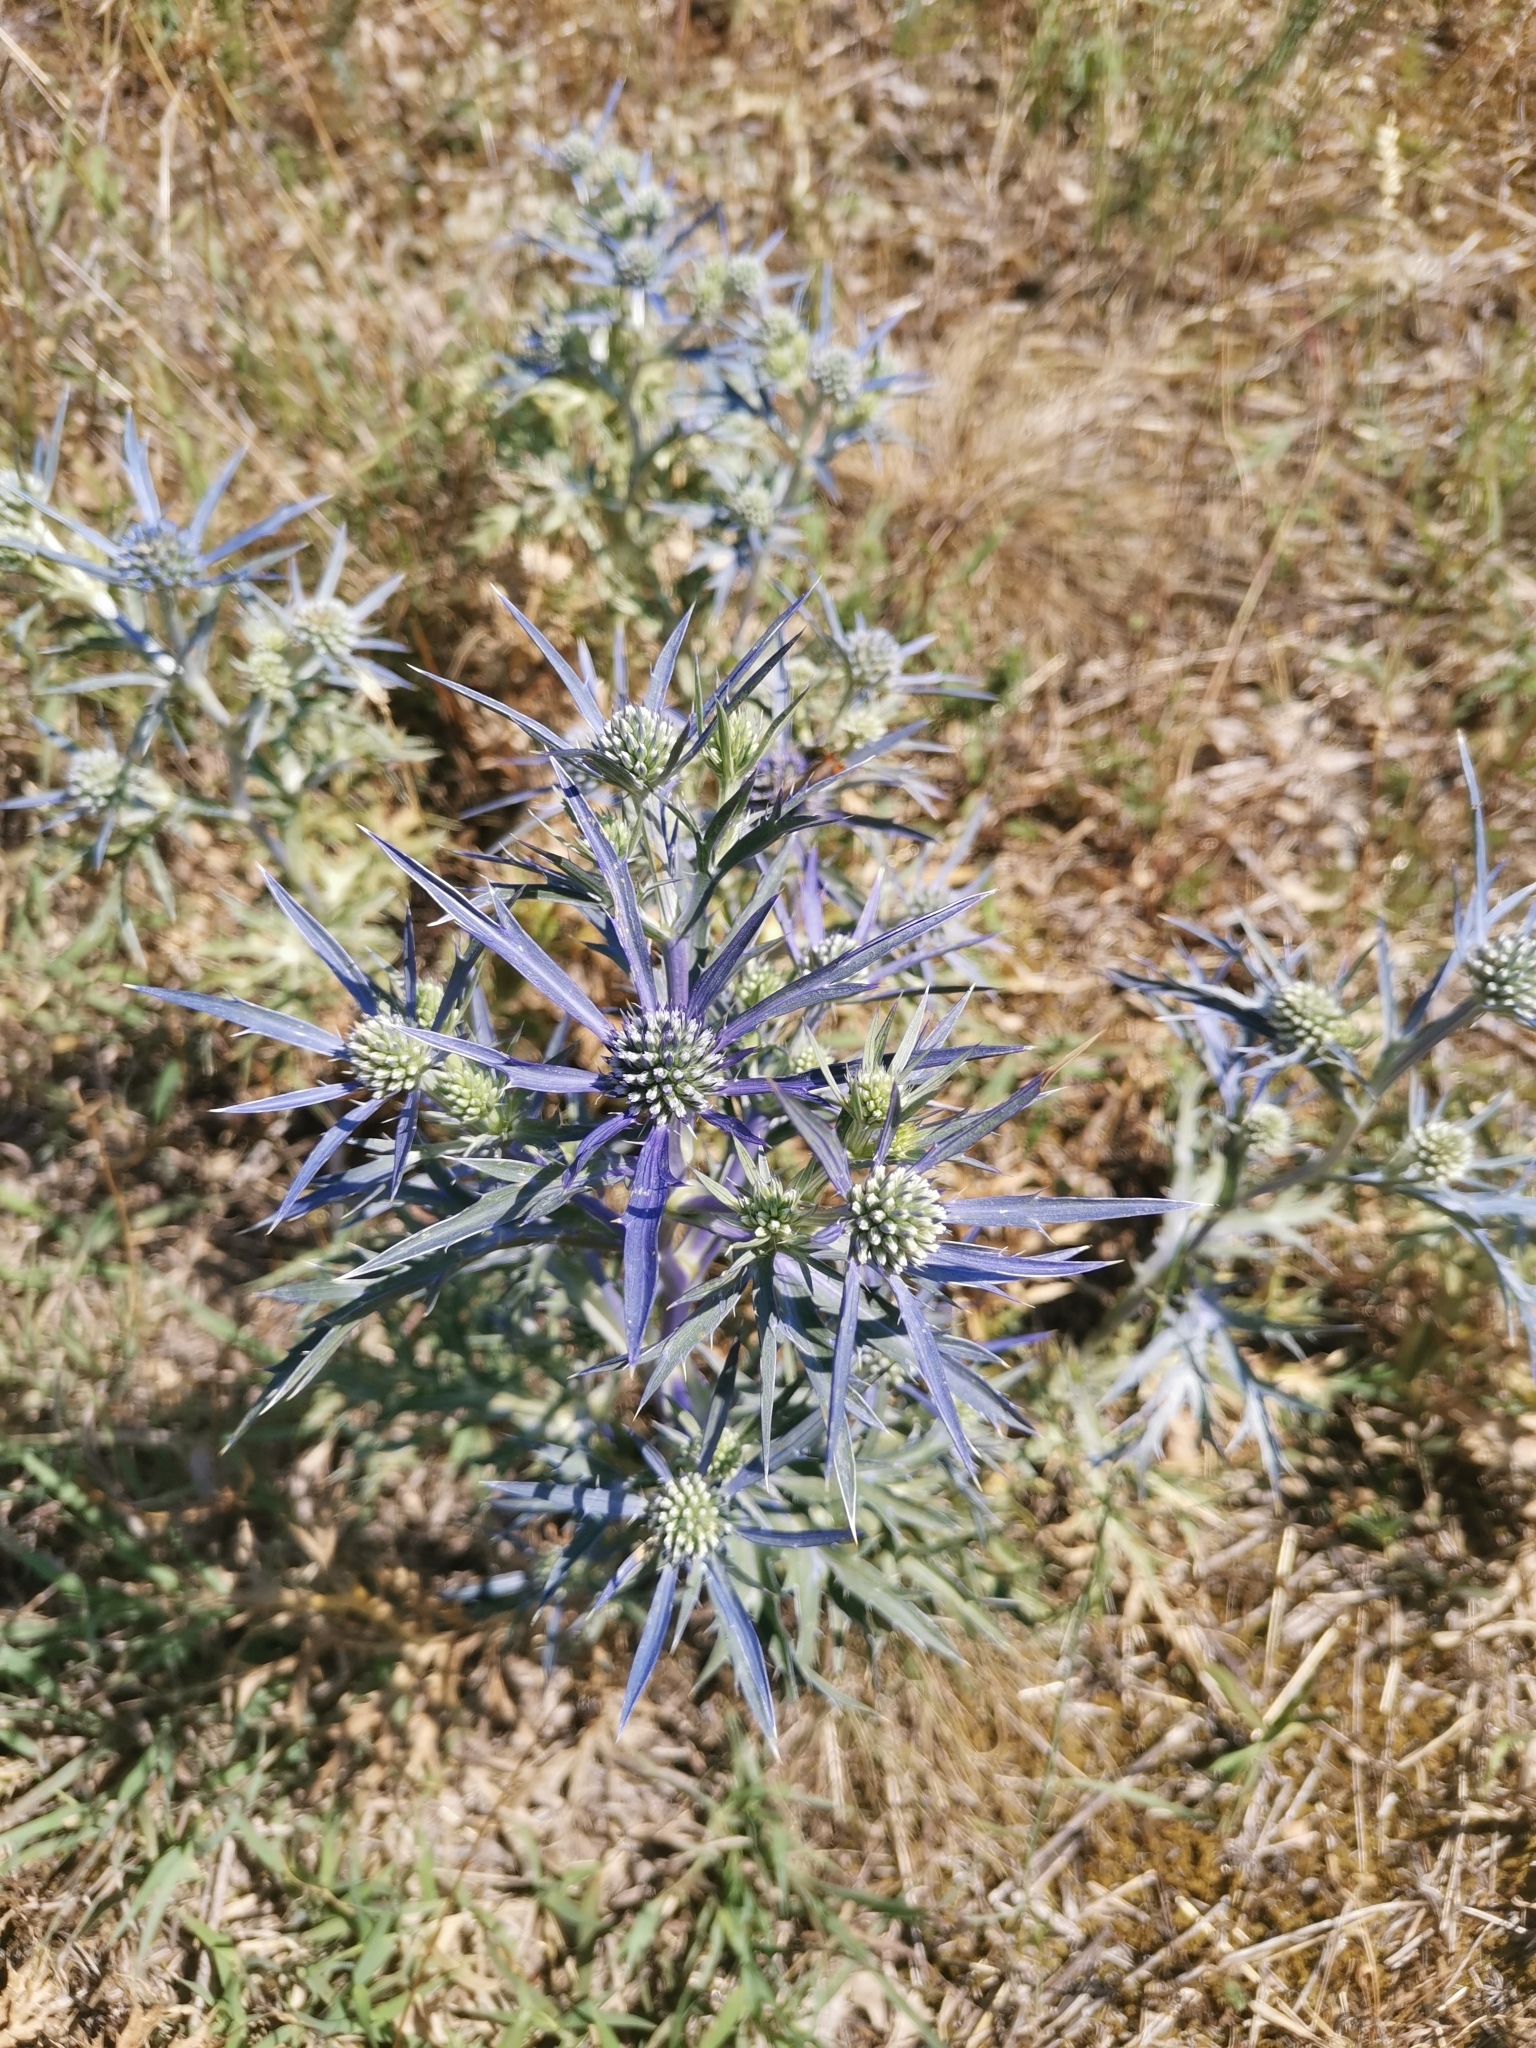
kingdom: Plantae
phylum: Tracheophyta
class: Magnoliopsida
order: Apiales
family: Apiaceae
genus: Eryngium
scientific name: Eryngium amethystinum
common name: Amethyst eryngo
